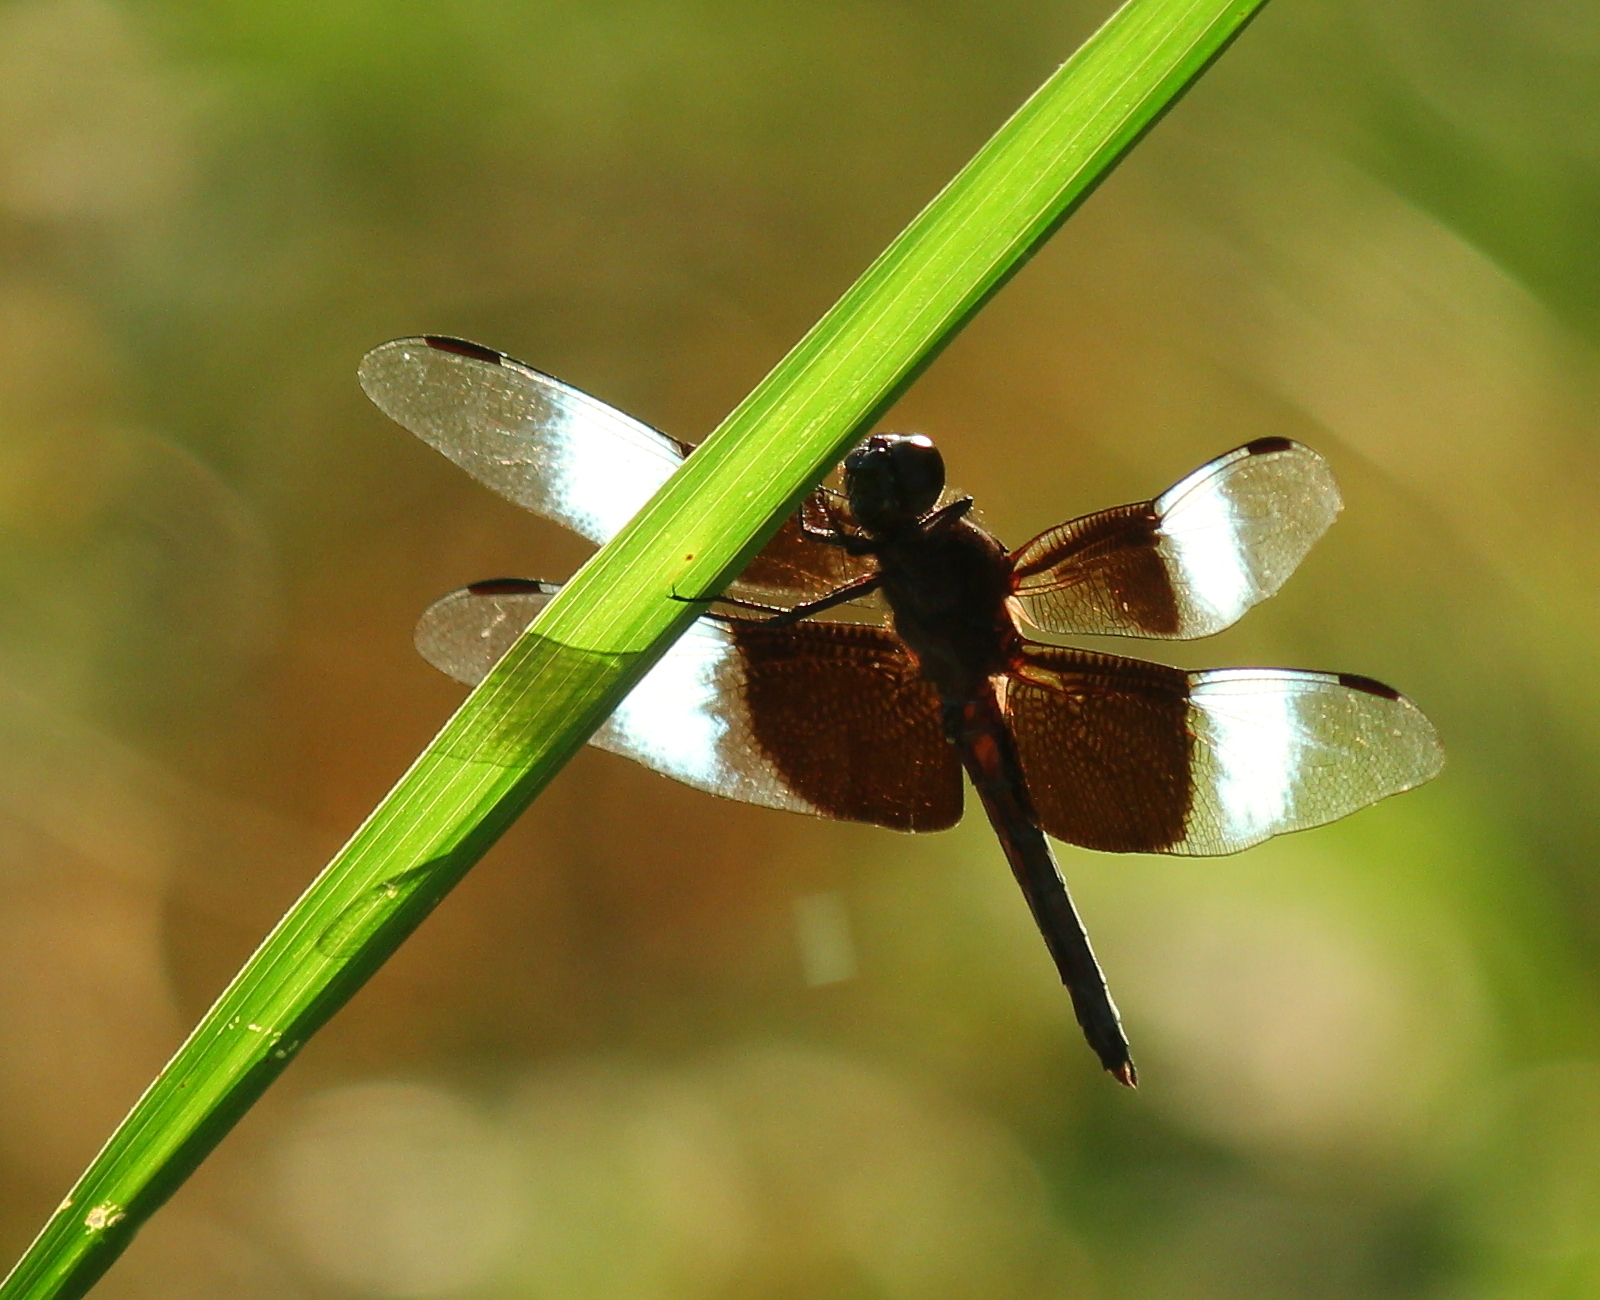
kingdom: Animalia
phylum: Arthropoda
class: Insecta
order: Odonata
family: Libellulidae
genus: Libellula
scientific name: Libellula luctuosa
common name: Widow skimmer
